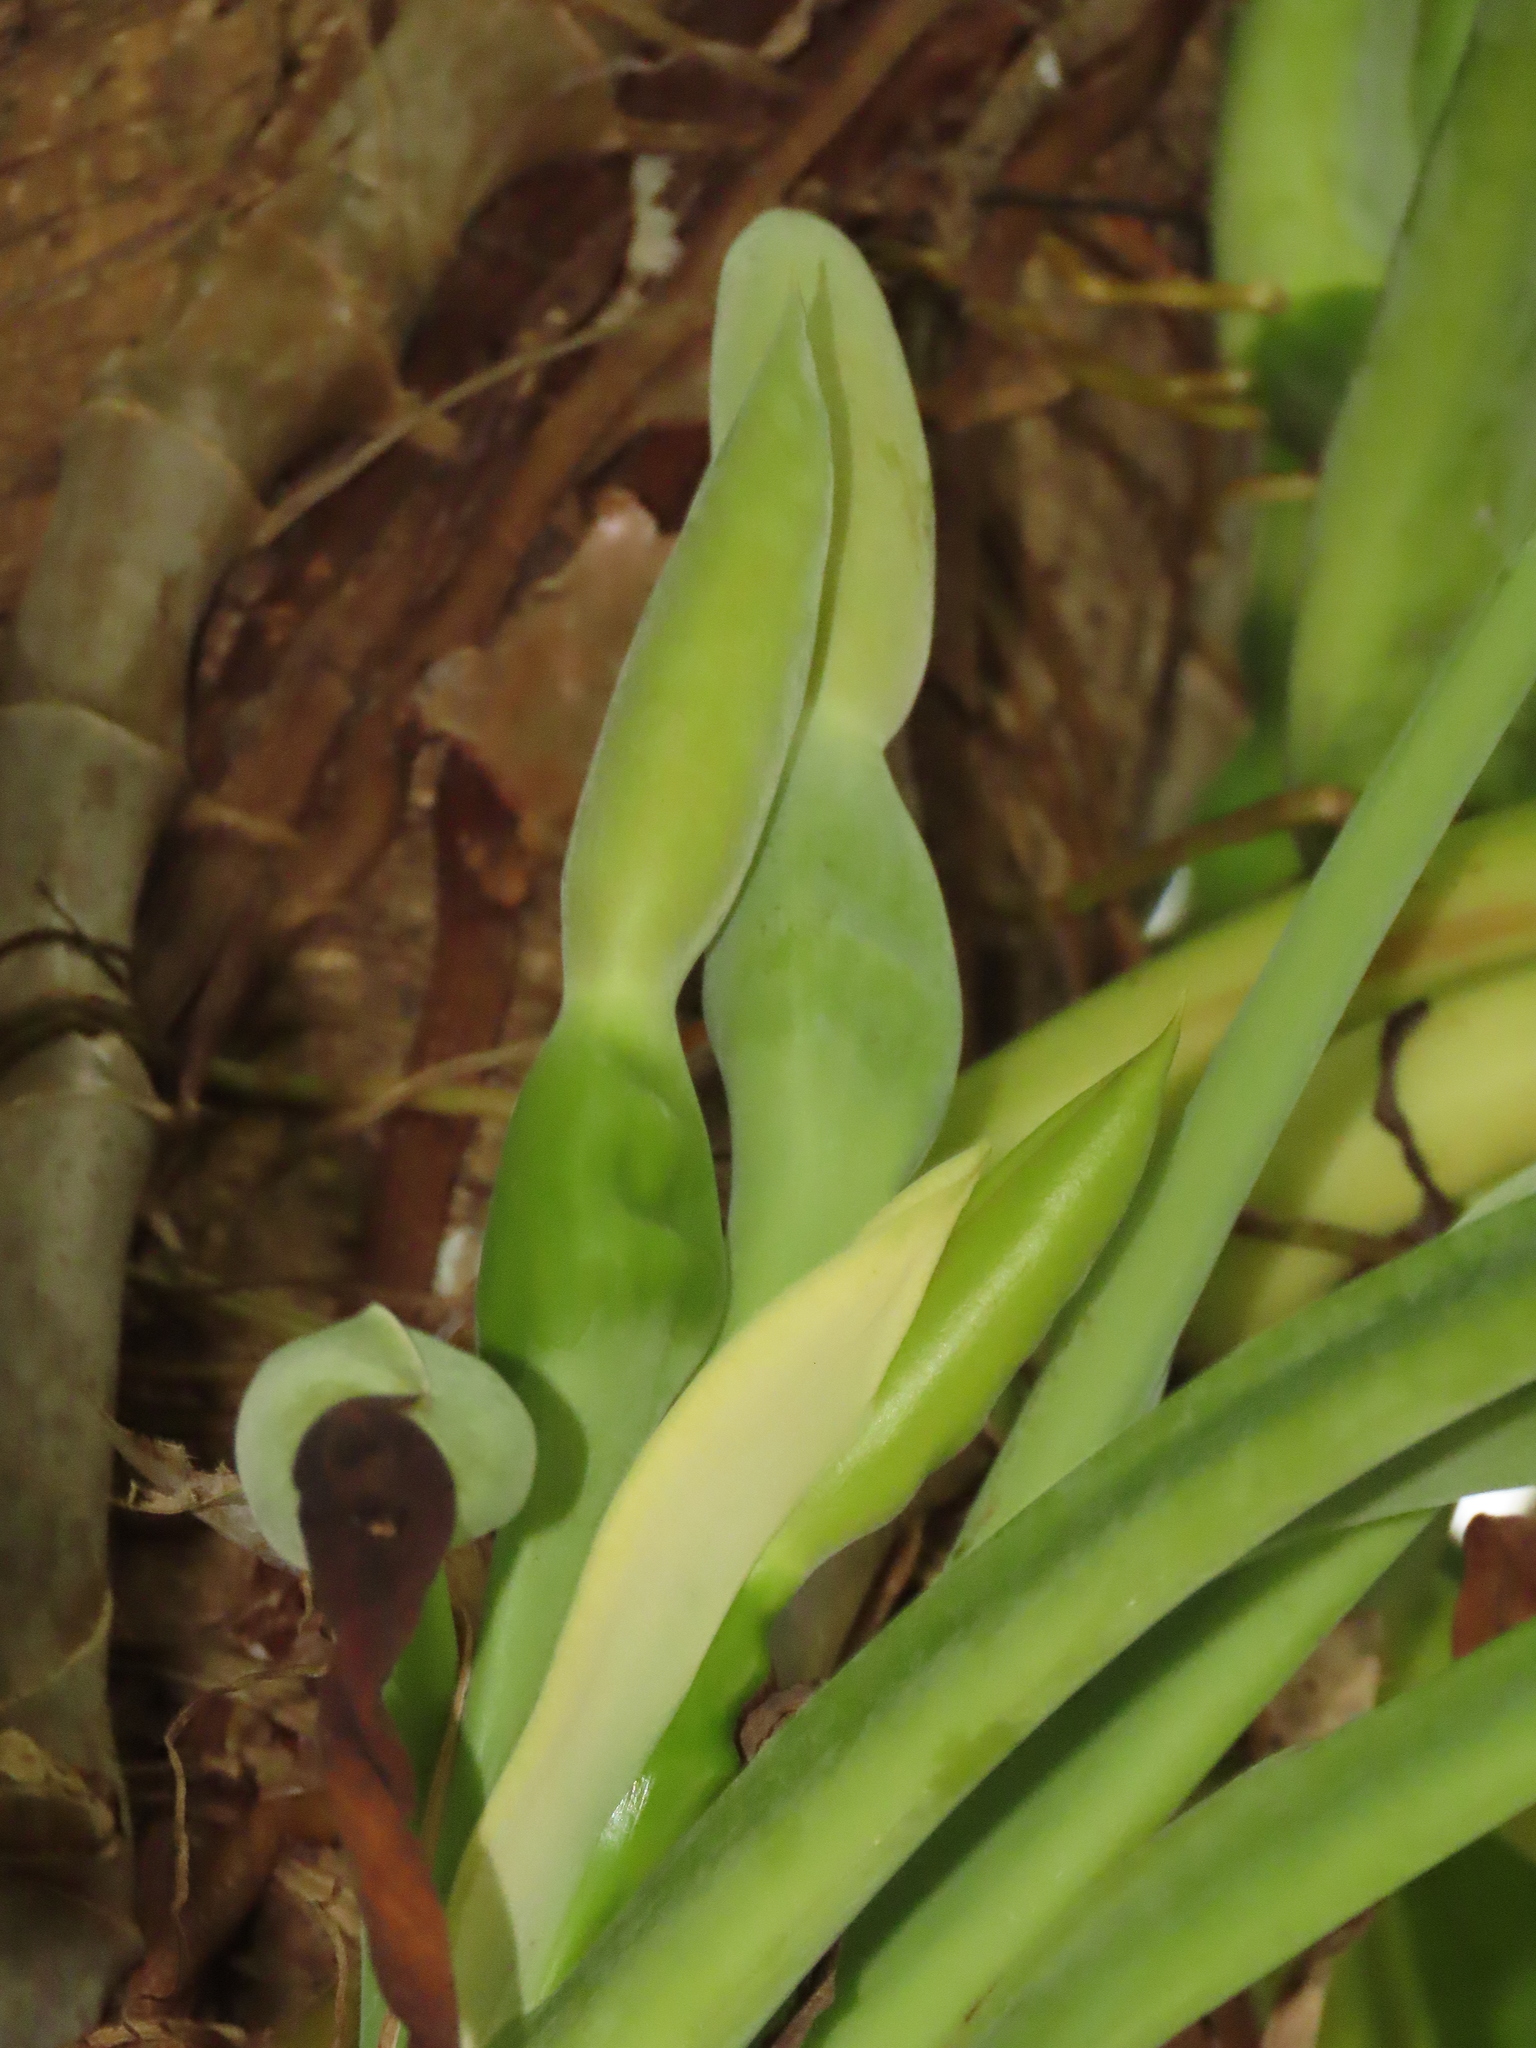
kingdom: Plantae
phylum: Tracheophyta
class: Liliopsida
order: Alismatales
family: Araceae
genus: Syngonium
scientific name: Syngonium angustatum
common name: Fivefingers
